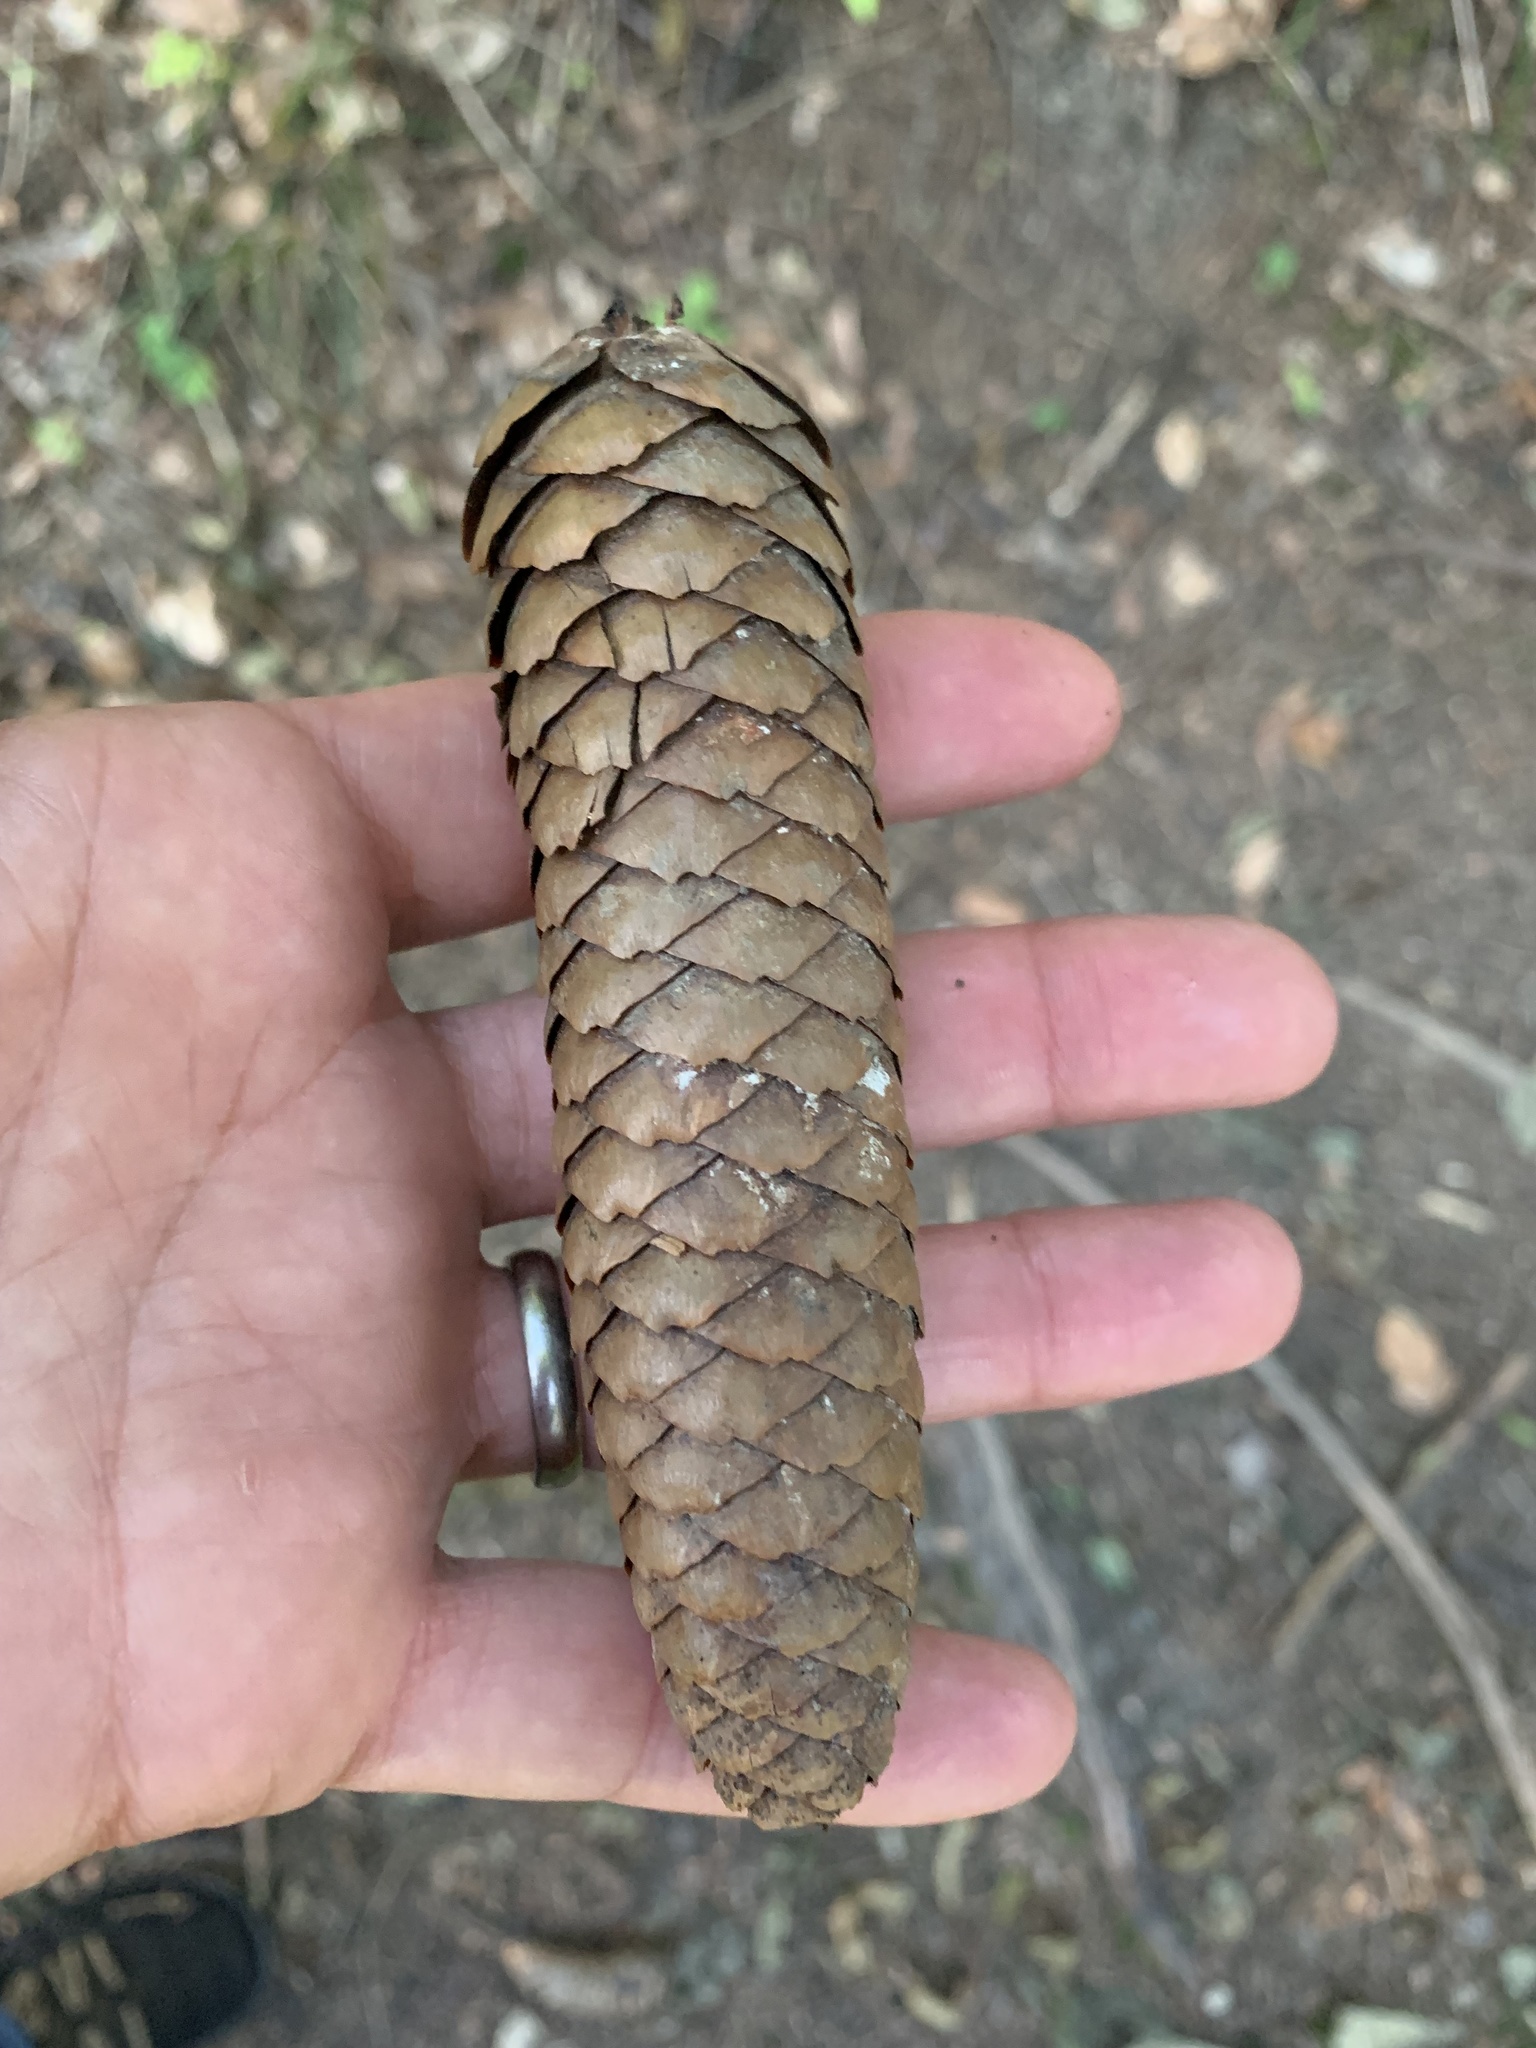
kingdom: Plantae
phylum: Tracheophyta
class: Pinopsida
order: Pinales
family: Pinaceae
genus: Picea
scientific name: Picea abies
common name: Norway spruce
